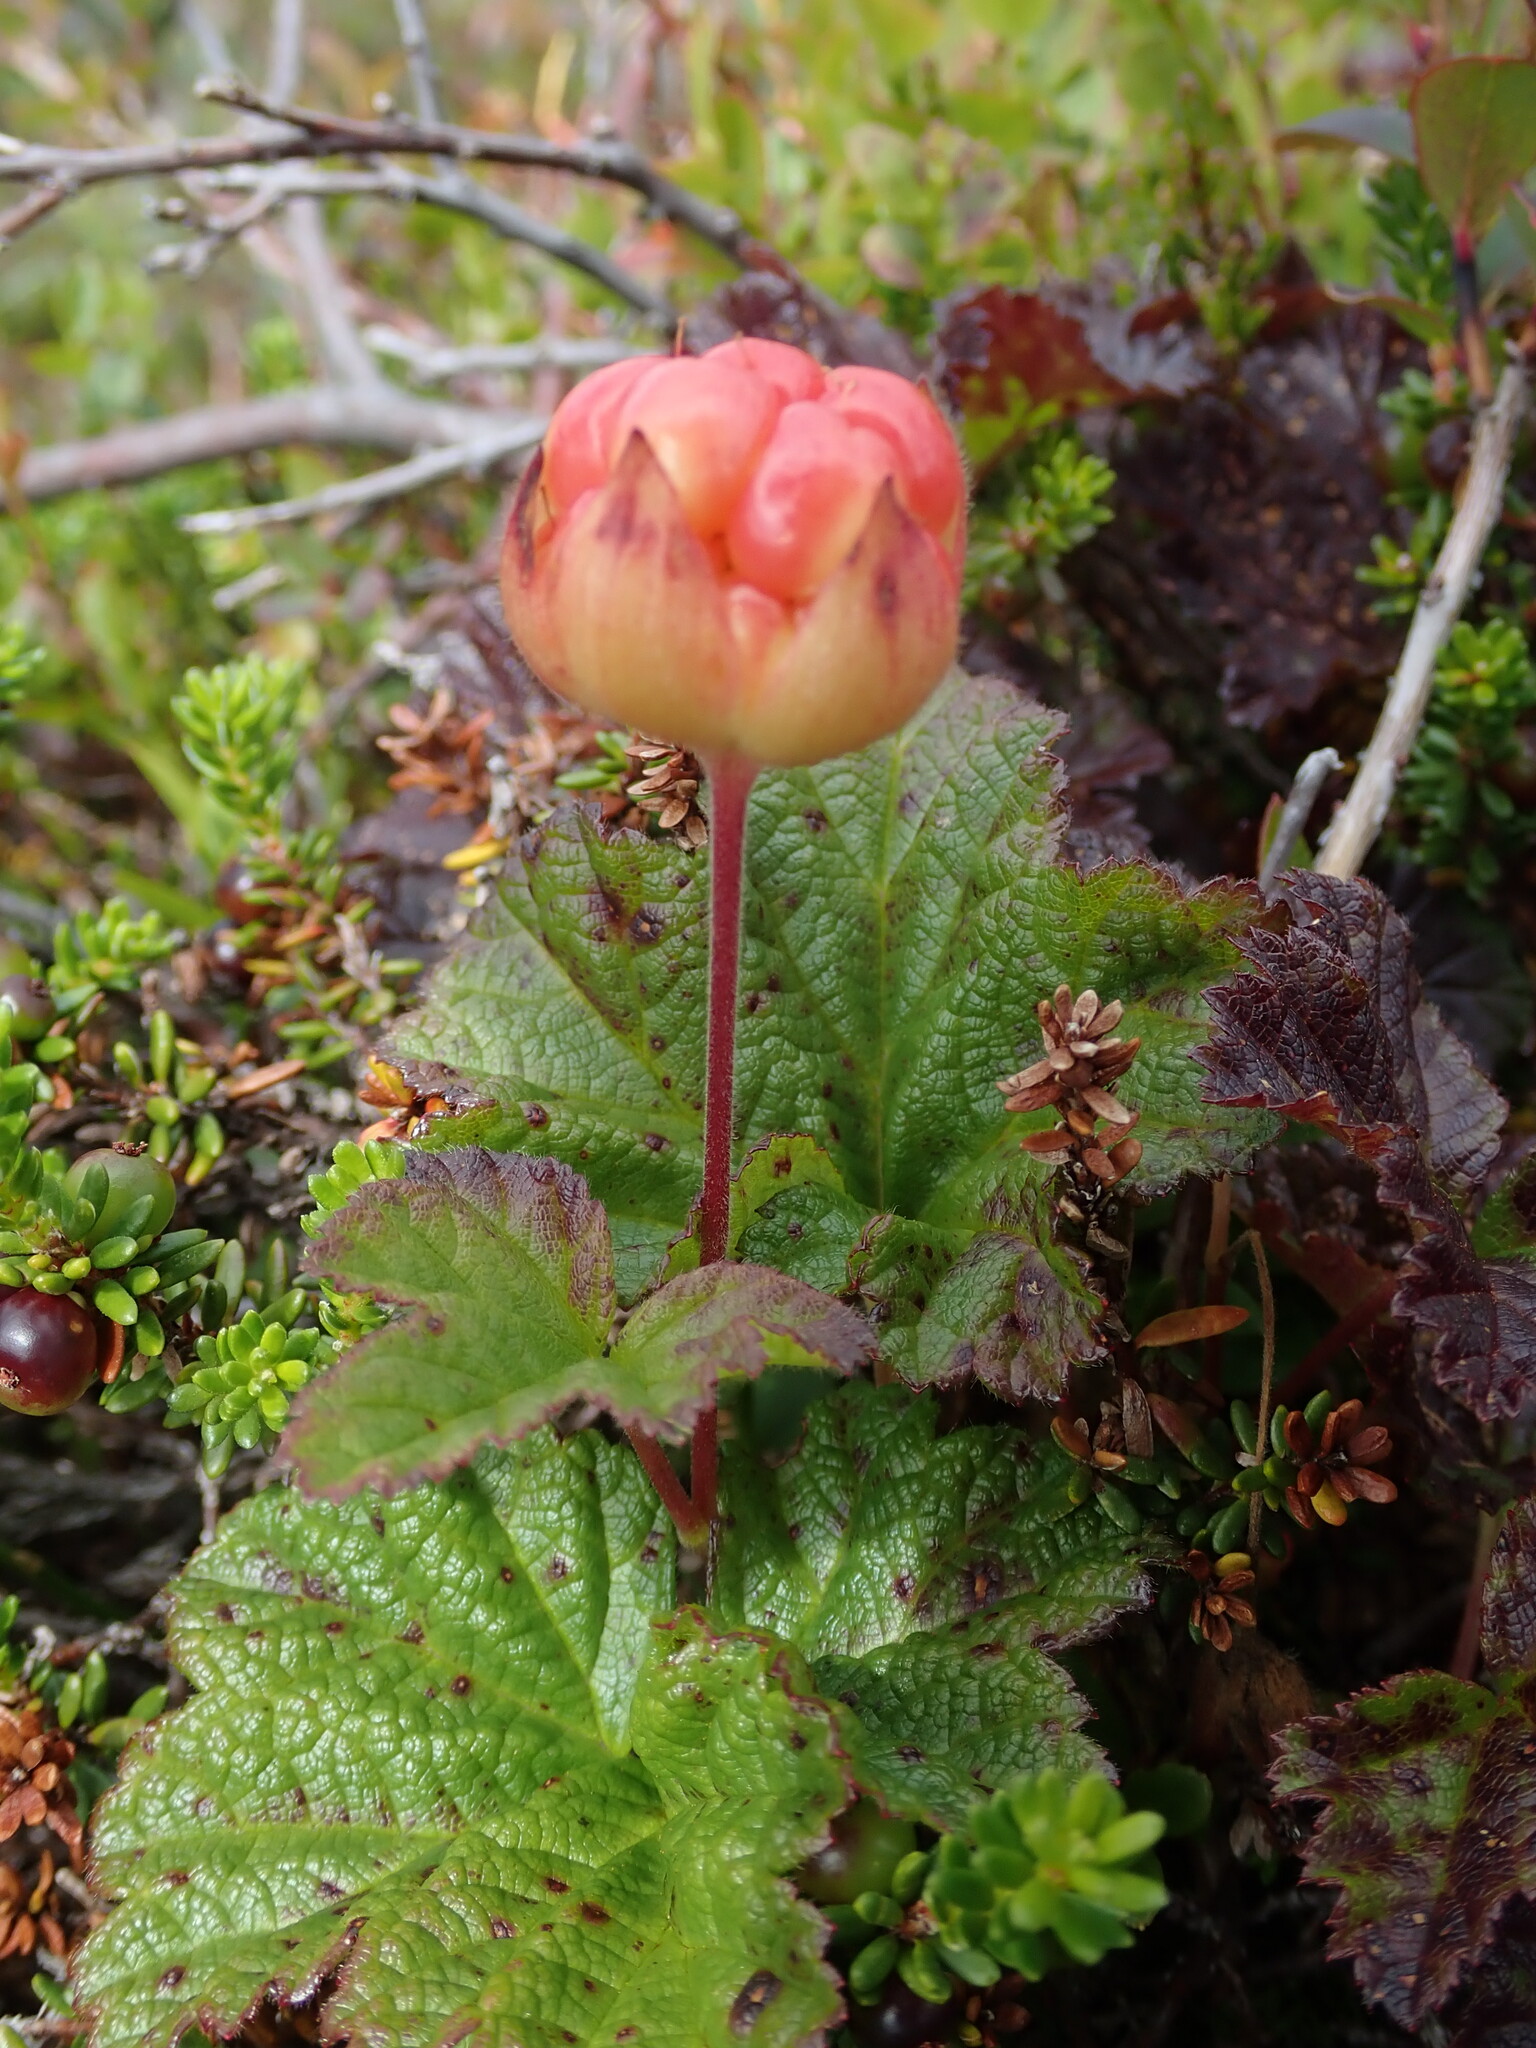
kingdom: Plantae
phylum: Tracheophyta
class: Magnoliopsida
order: Rosales
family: Rosaceae
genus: Rubus
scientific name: Rubus chamaemorus
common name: Cloudberry
